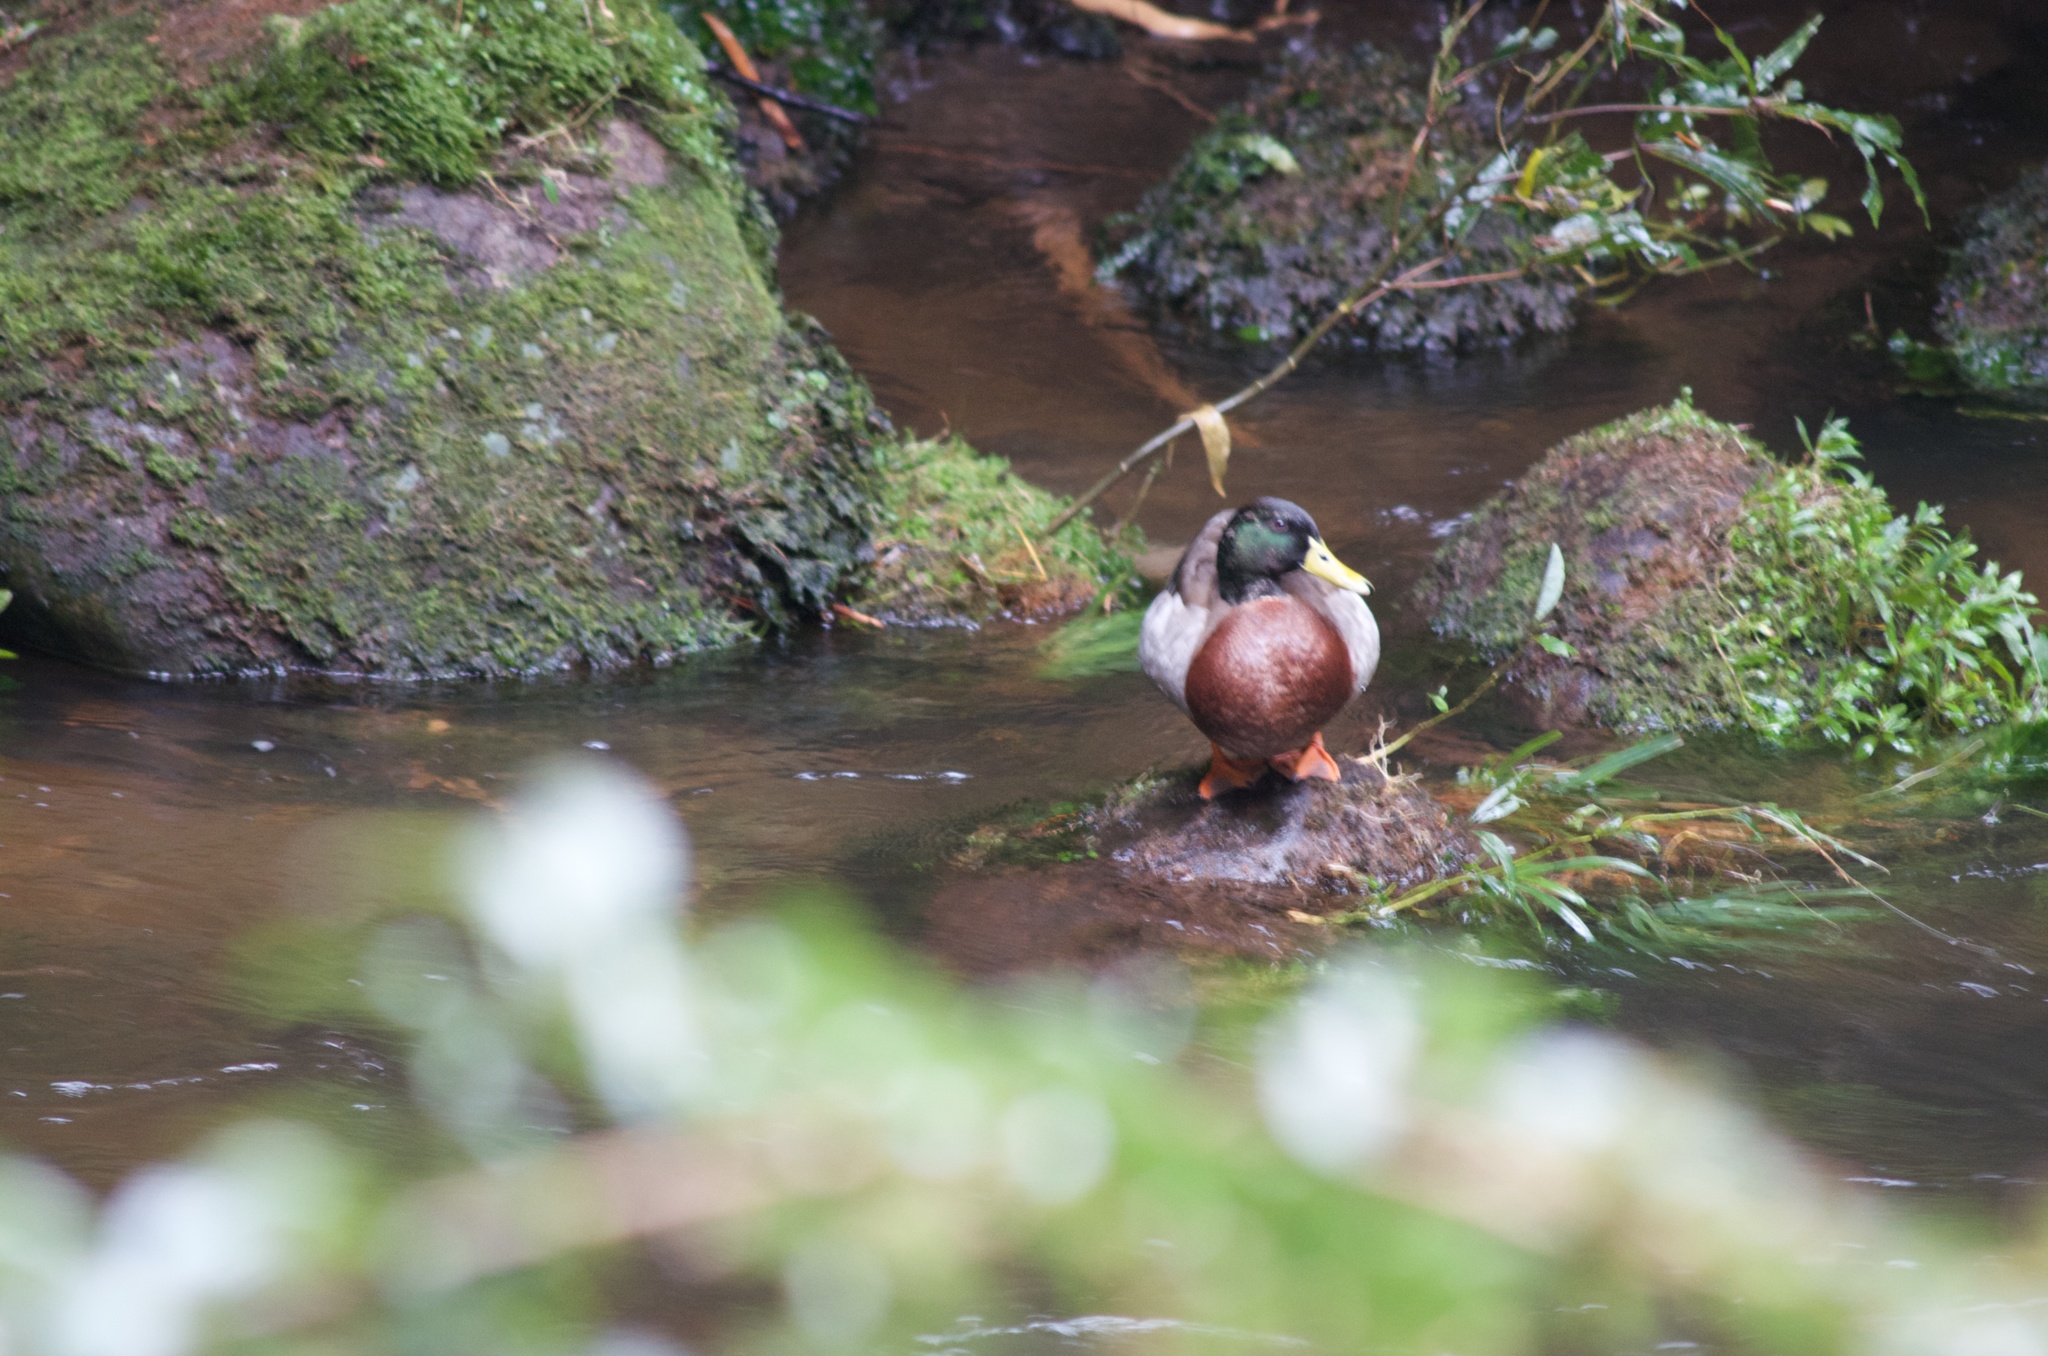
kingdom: Animalia
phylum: Chordata
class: Aves
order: Anseriformes
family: Anatidae
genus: Anas
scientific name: Anas platyrhynchos
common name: Mallard
